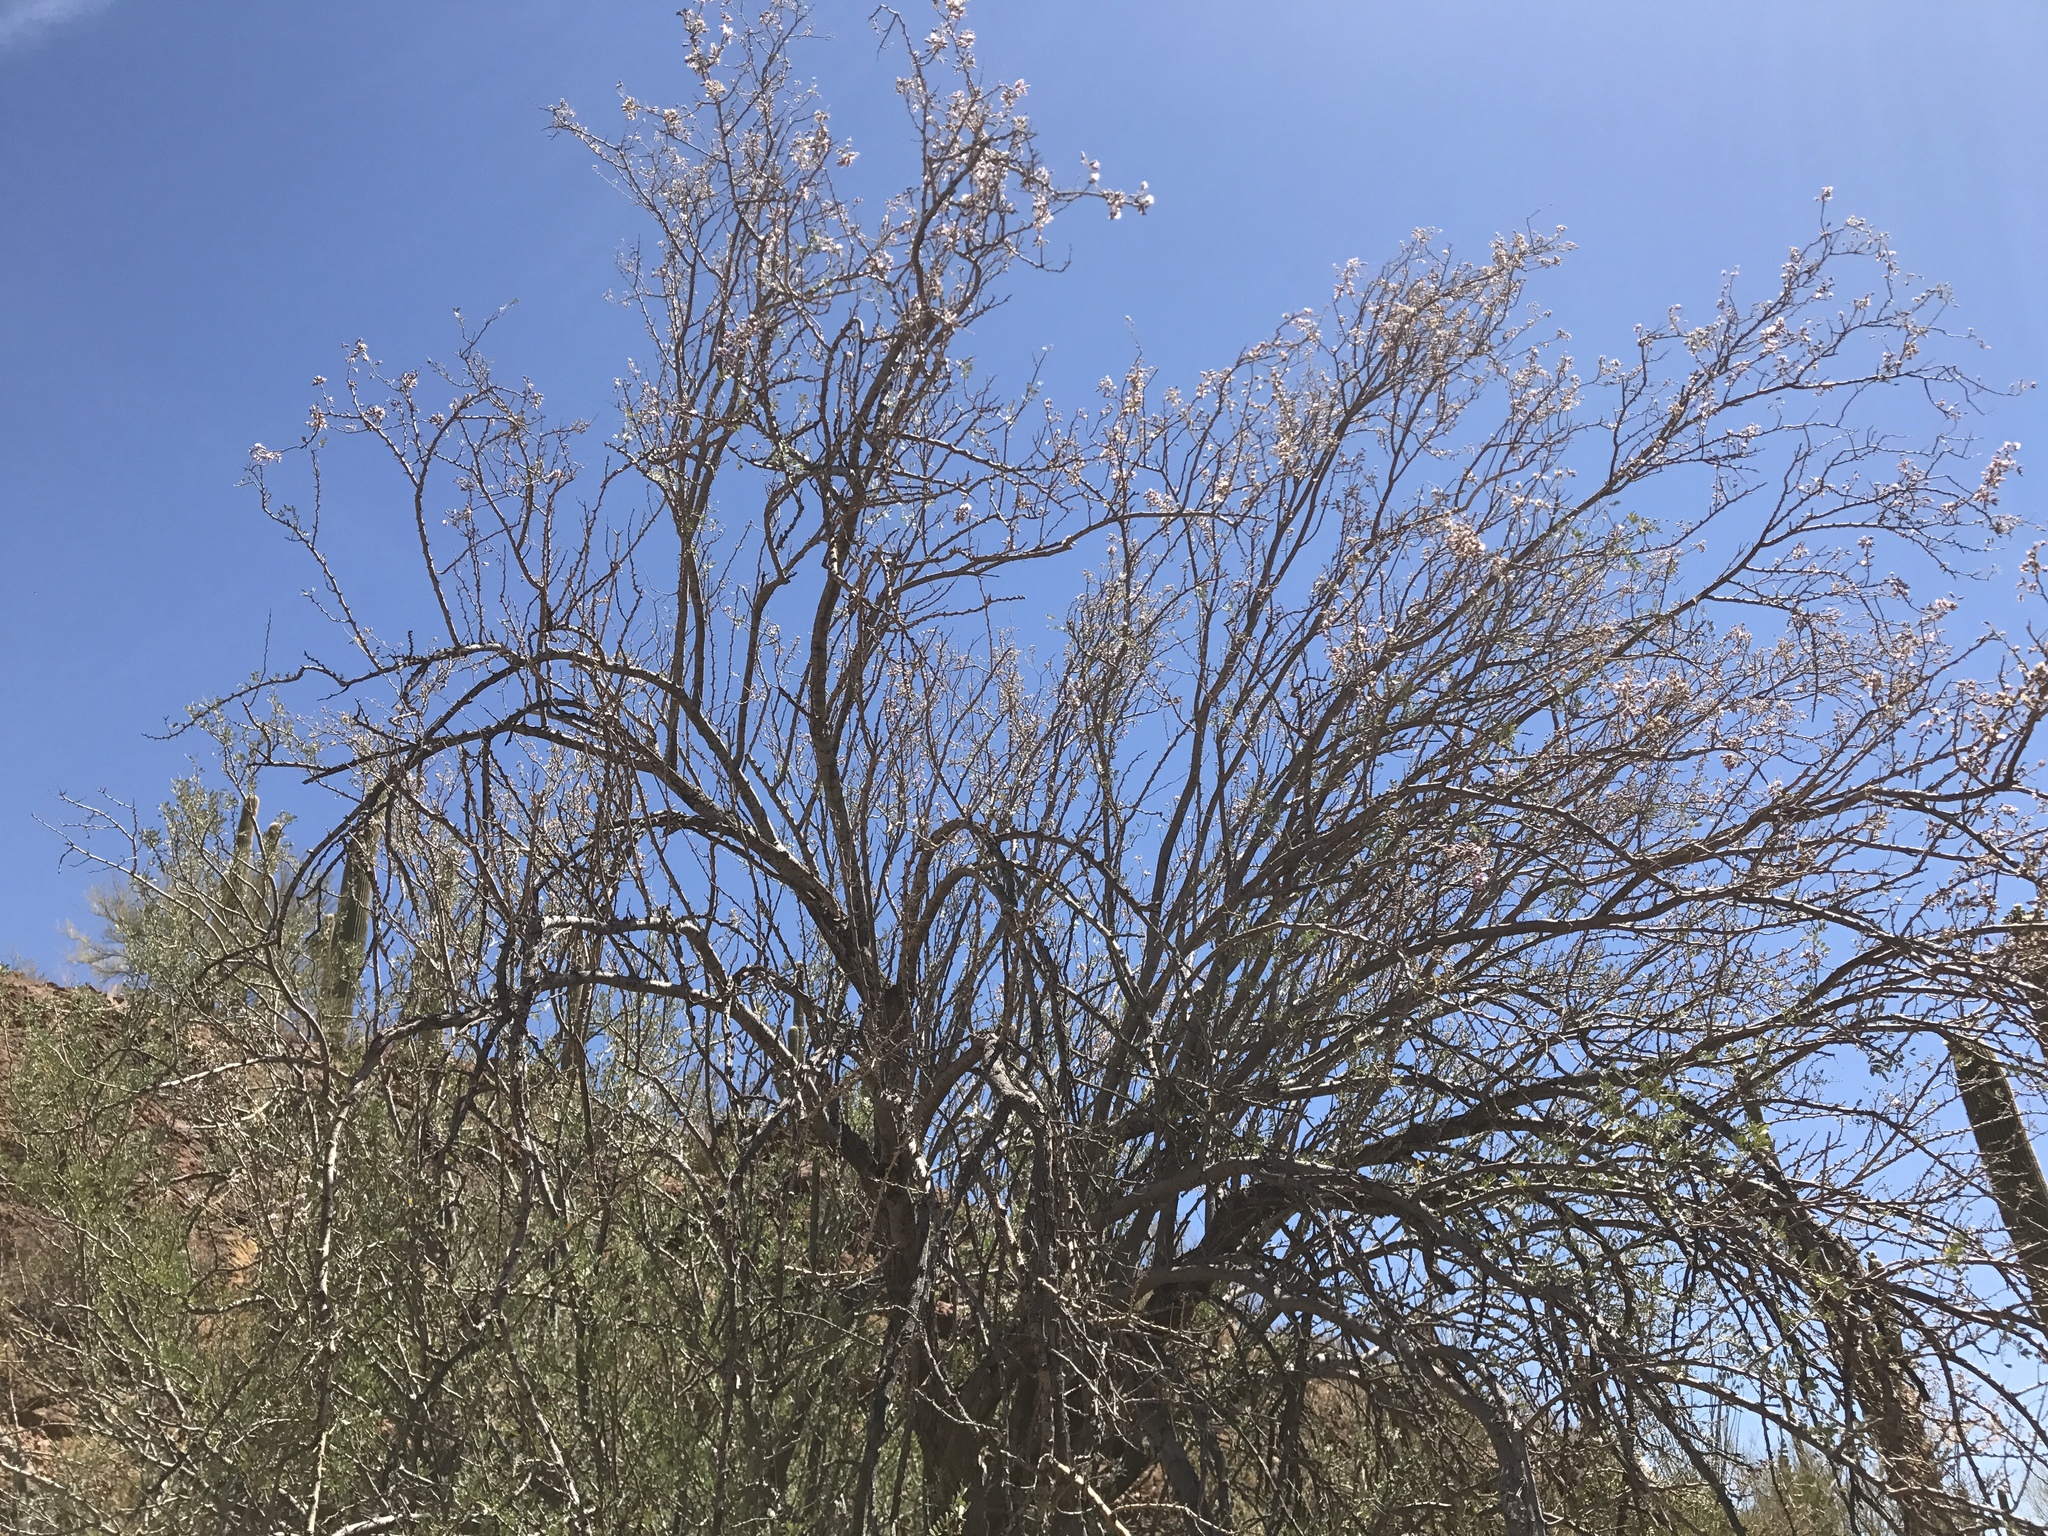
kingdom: Plantae
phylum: Tracheophyta
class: Magnoliopsida
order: Fabales
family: Fabaceae
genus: Olneya
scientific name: Olneya tesota
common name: Desert ironwood
